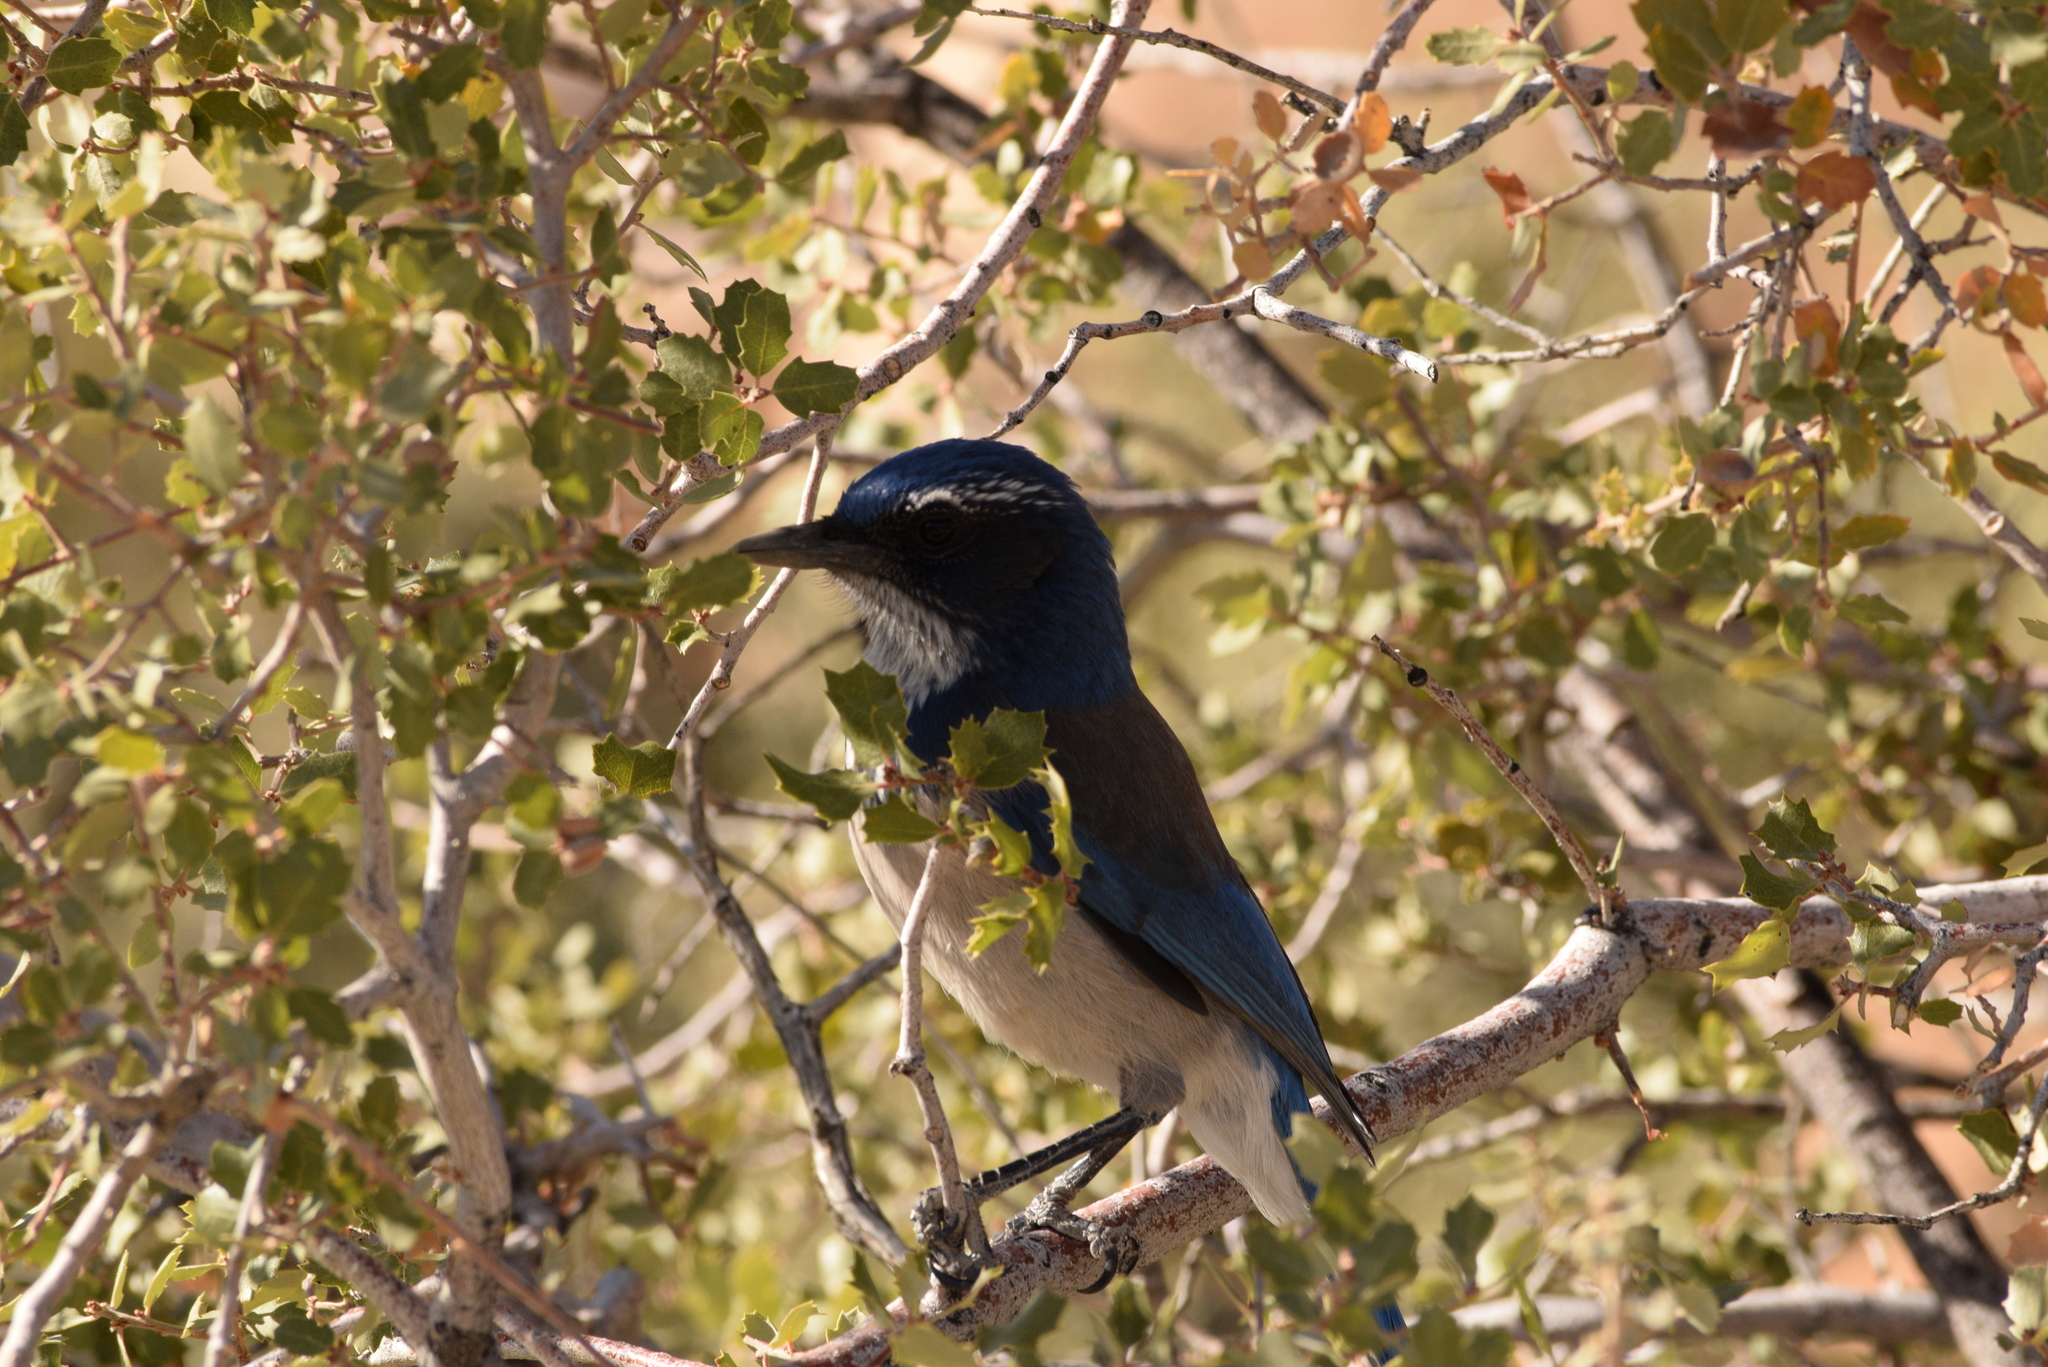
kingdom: Animalia
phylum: Chordata
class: Aves
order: Passeriformes
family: Corvidae
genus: Aphelocoma
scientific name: Aphelocoma californica
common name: California scrub-jay
